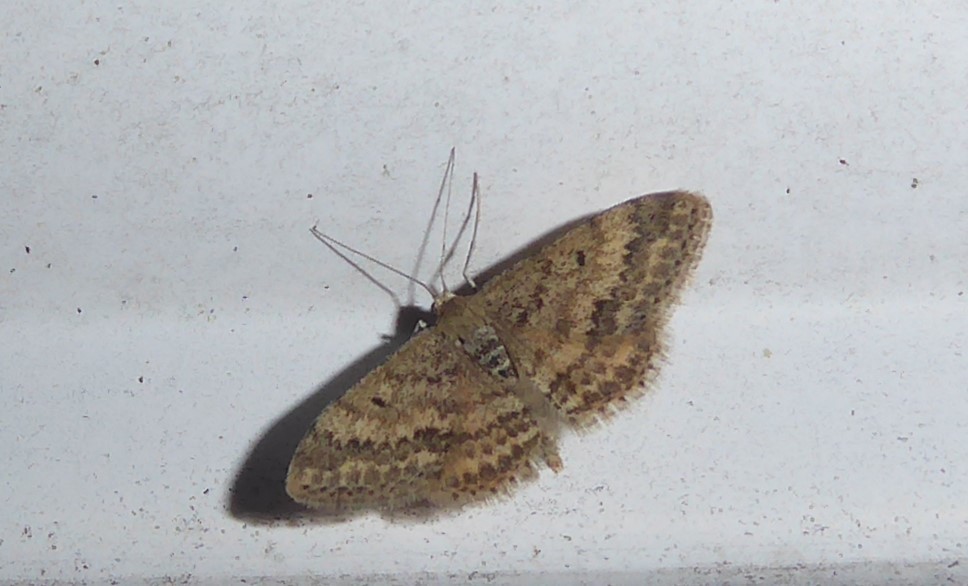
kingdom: Animalia
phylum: Arthropoda
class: Insecta
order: Lepidoptera
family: Geometridae
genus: Scopula
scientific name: Scopula rubraria
